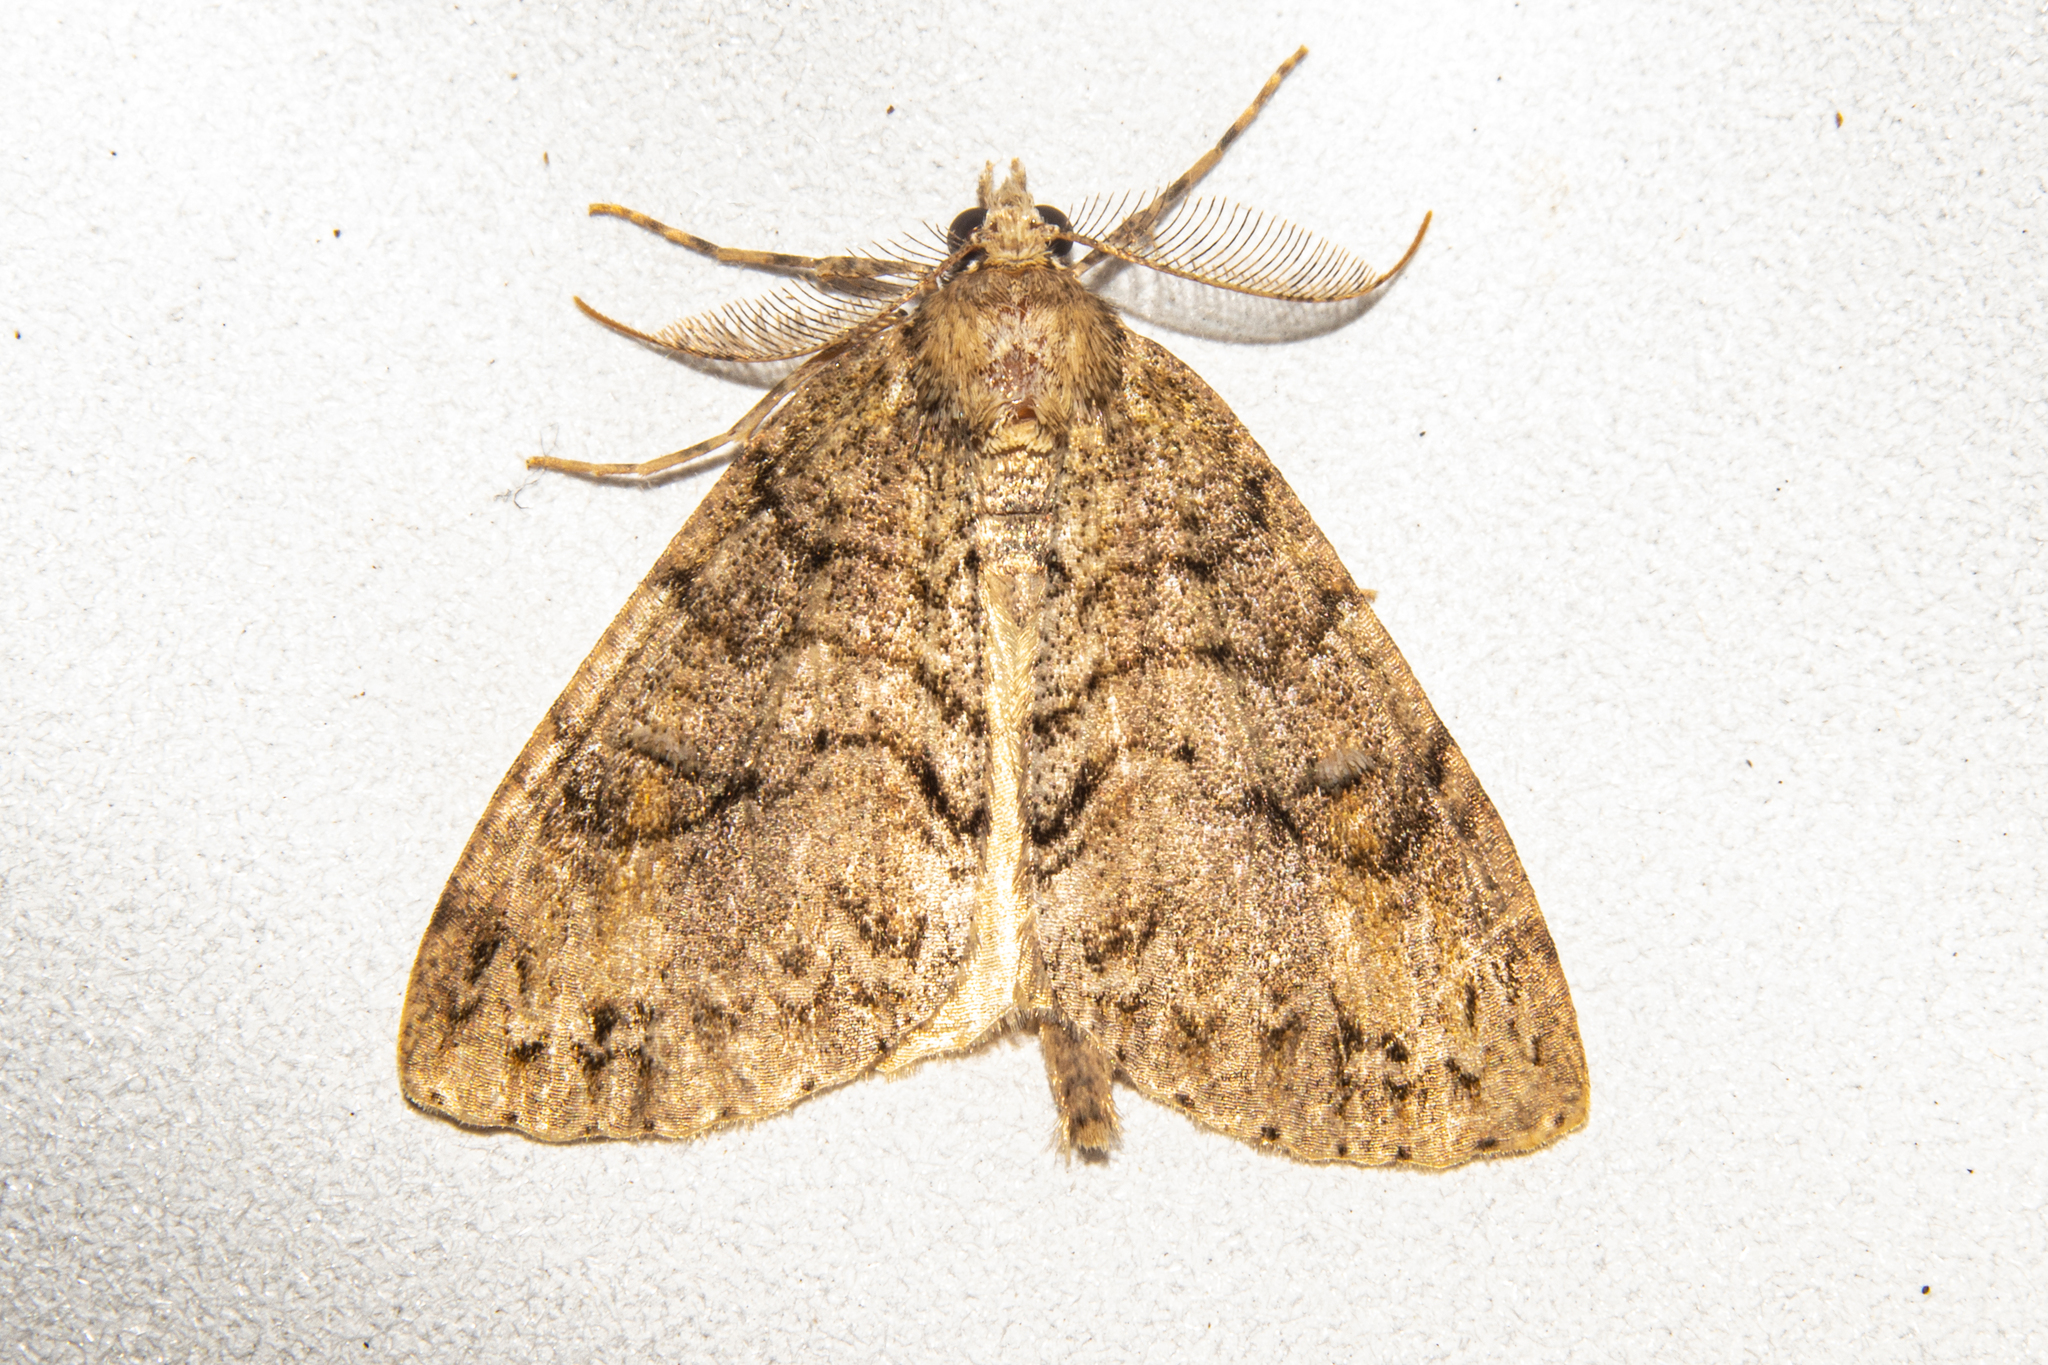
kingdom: Animalia
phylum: Arthropoda
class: Insecta
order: Lepidoptera
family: Geometridae
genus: Pseudocoremia
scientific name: Pseudocoremia suavis
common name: Common forest looper
